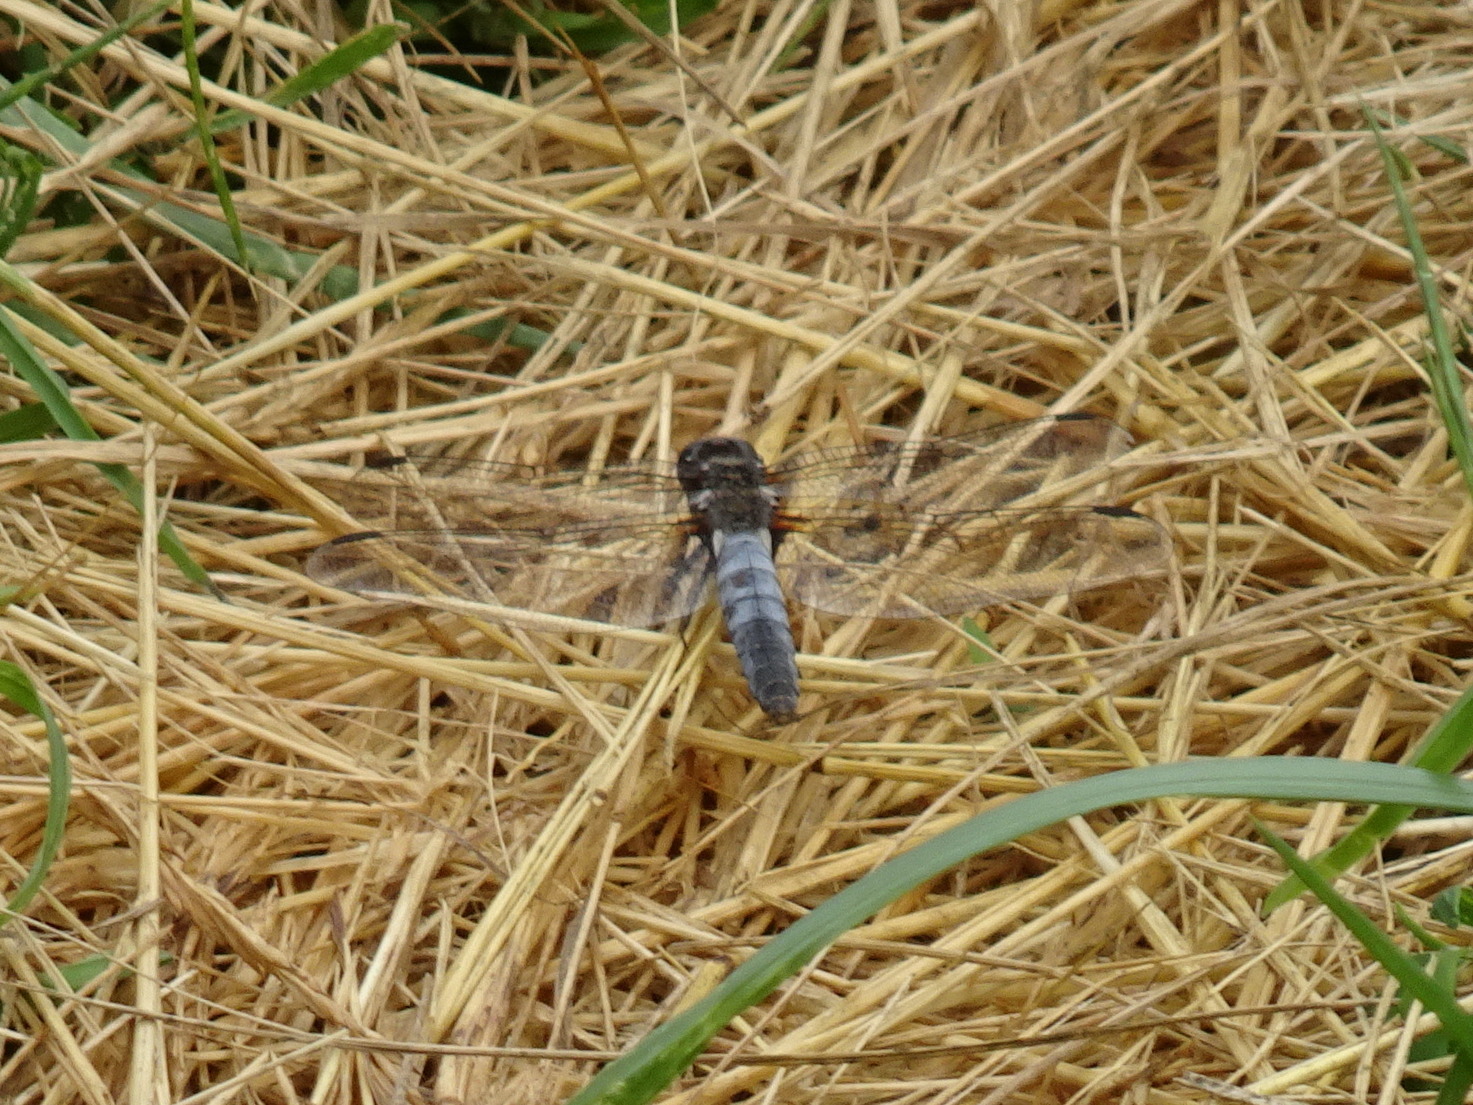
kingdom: Animalia
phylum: Arthropoda
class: Insecta
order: Odonata
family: Libellulidae
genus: Ladona
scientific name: Ladona julia
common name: Chalk-fronted corporal
